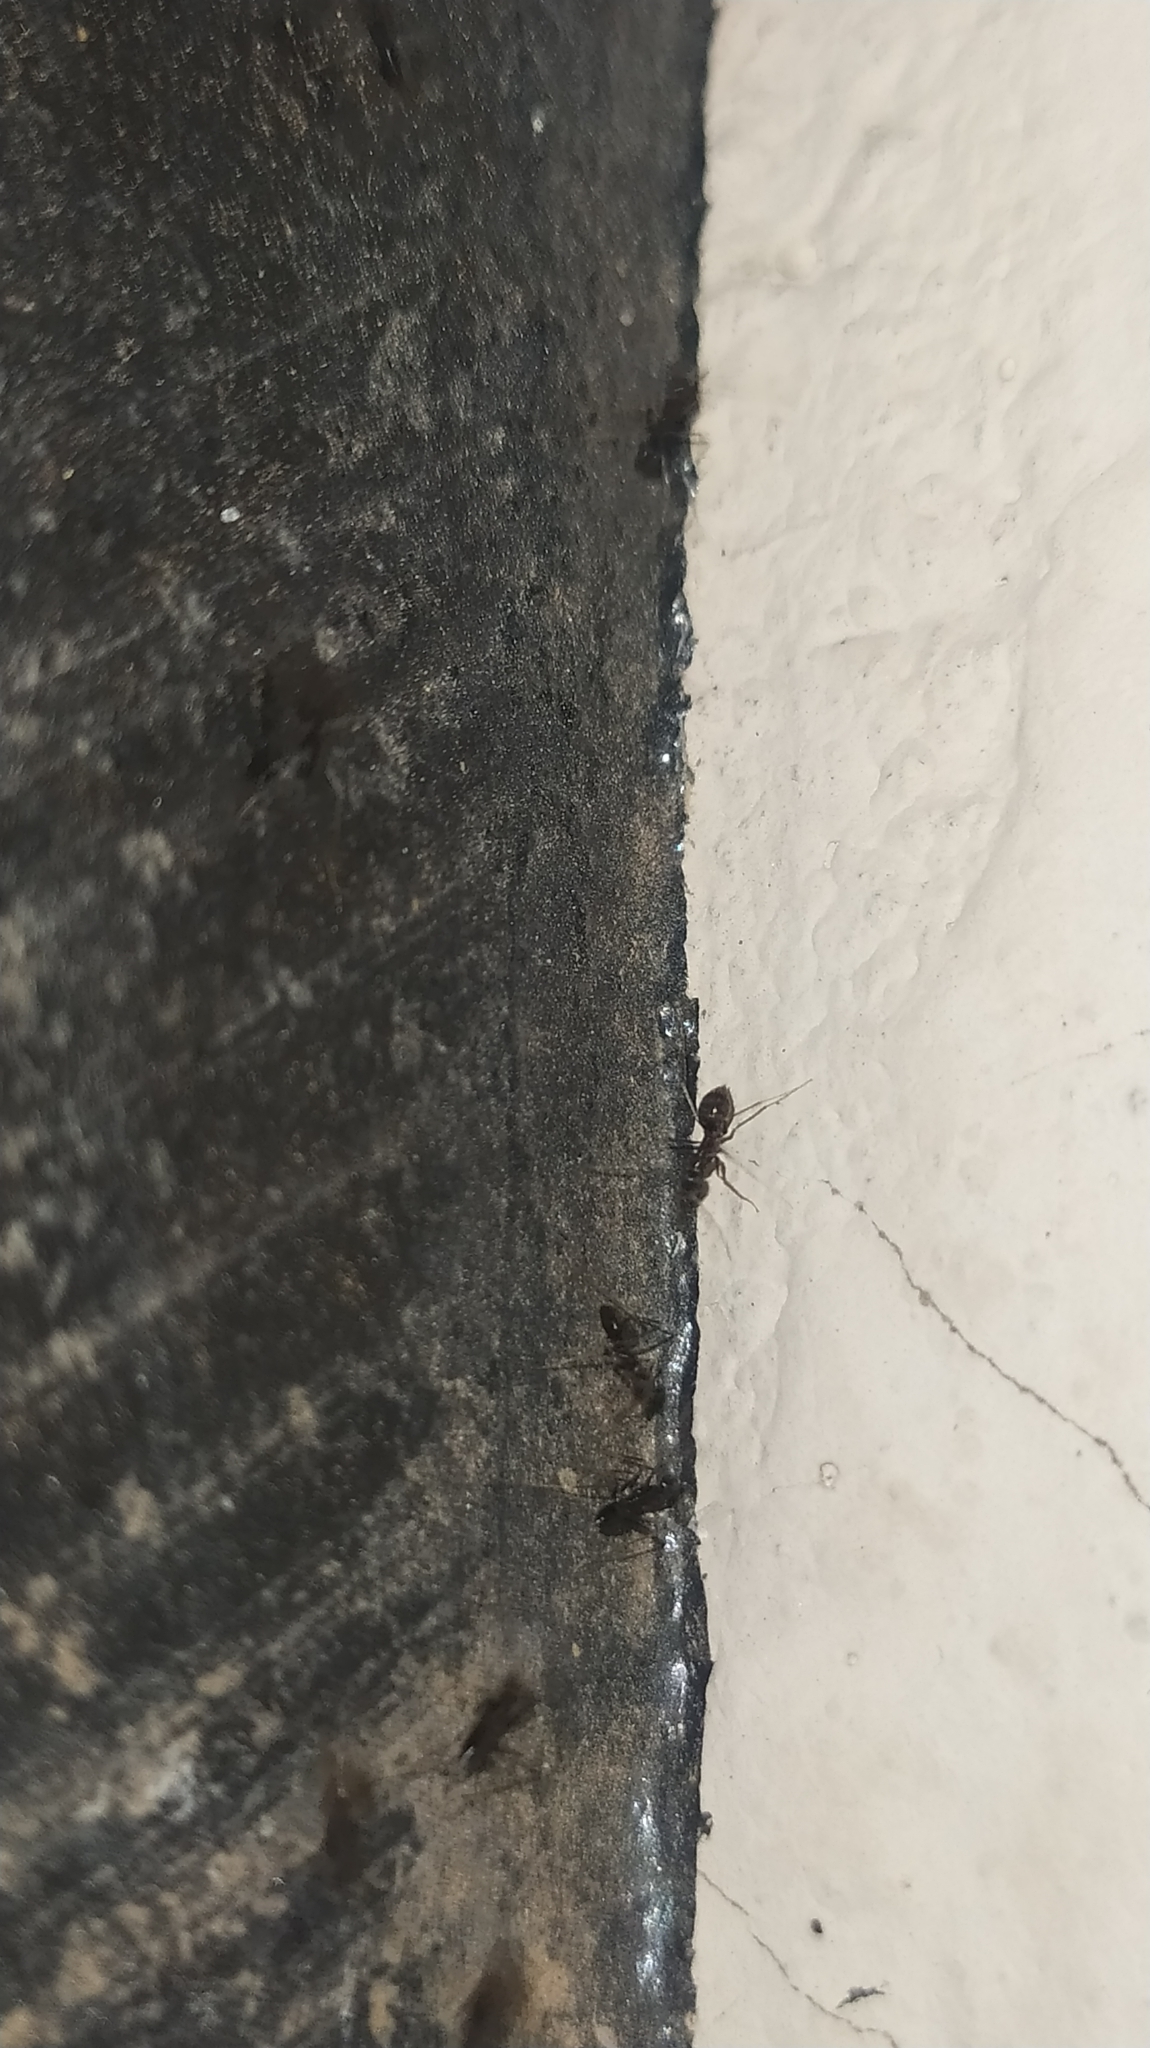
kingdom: Animalia
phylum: Arthropoda
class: Insecta
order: Hymenoptera
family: Formicidae
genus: Paratrechina
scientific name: Paratrechina longicornis
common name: Longhorned crazy ant
